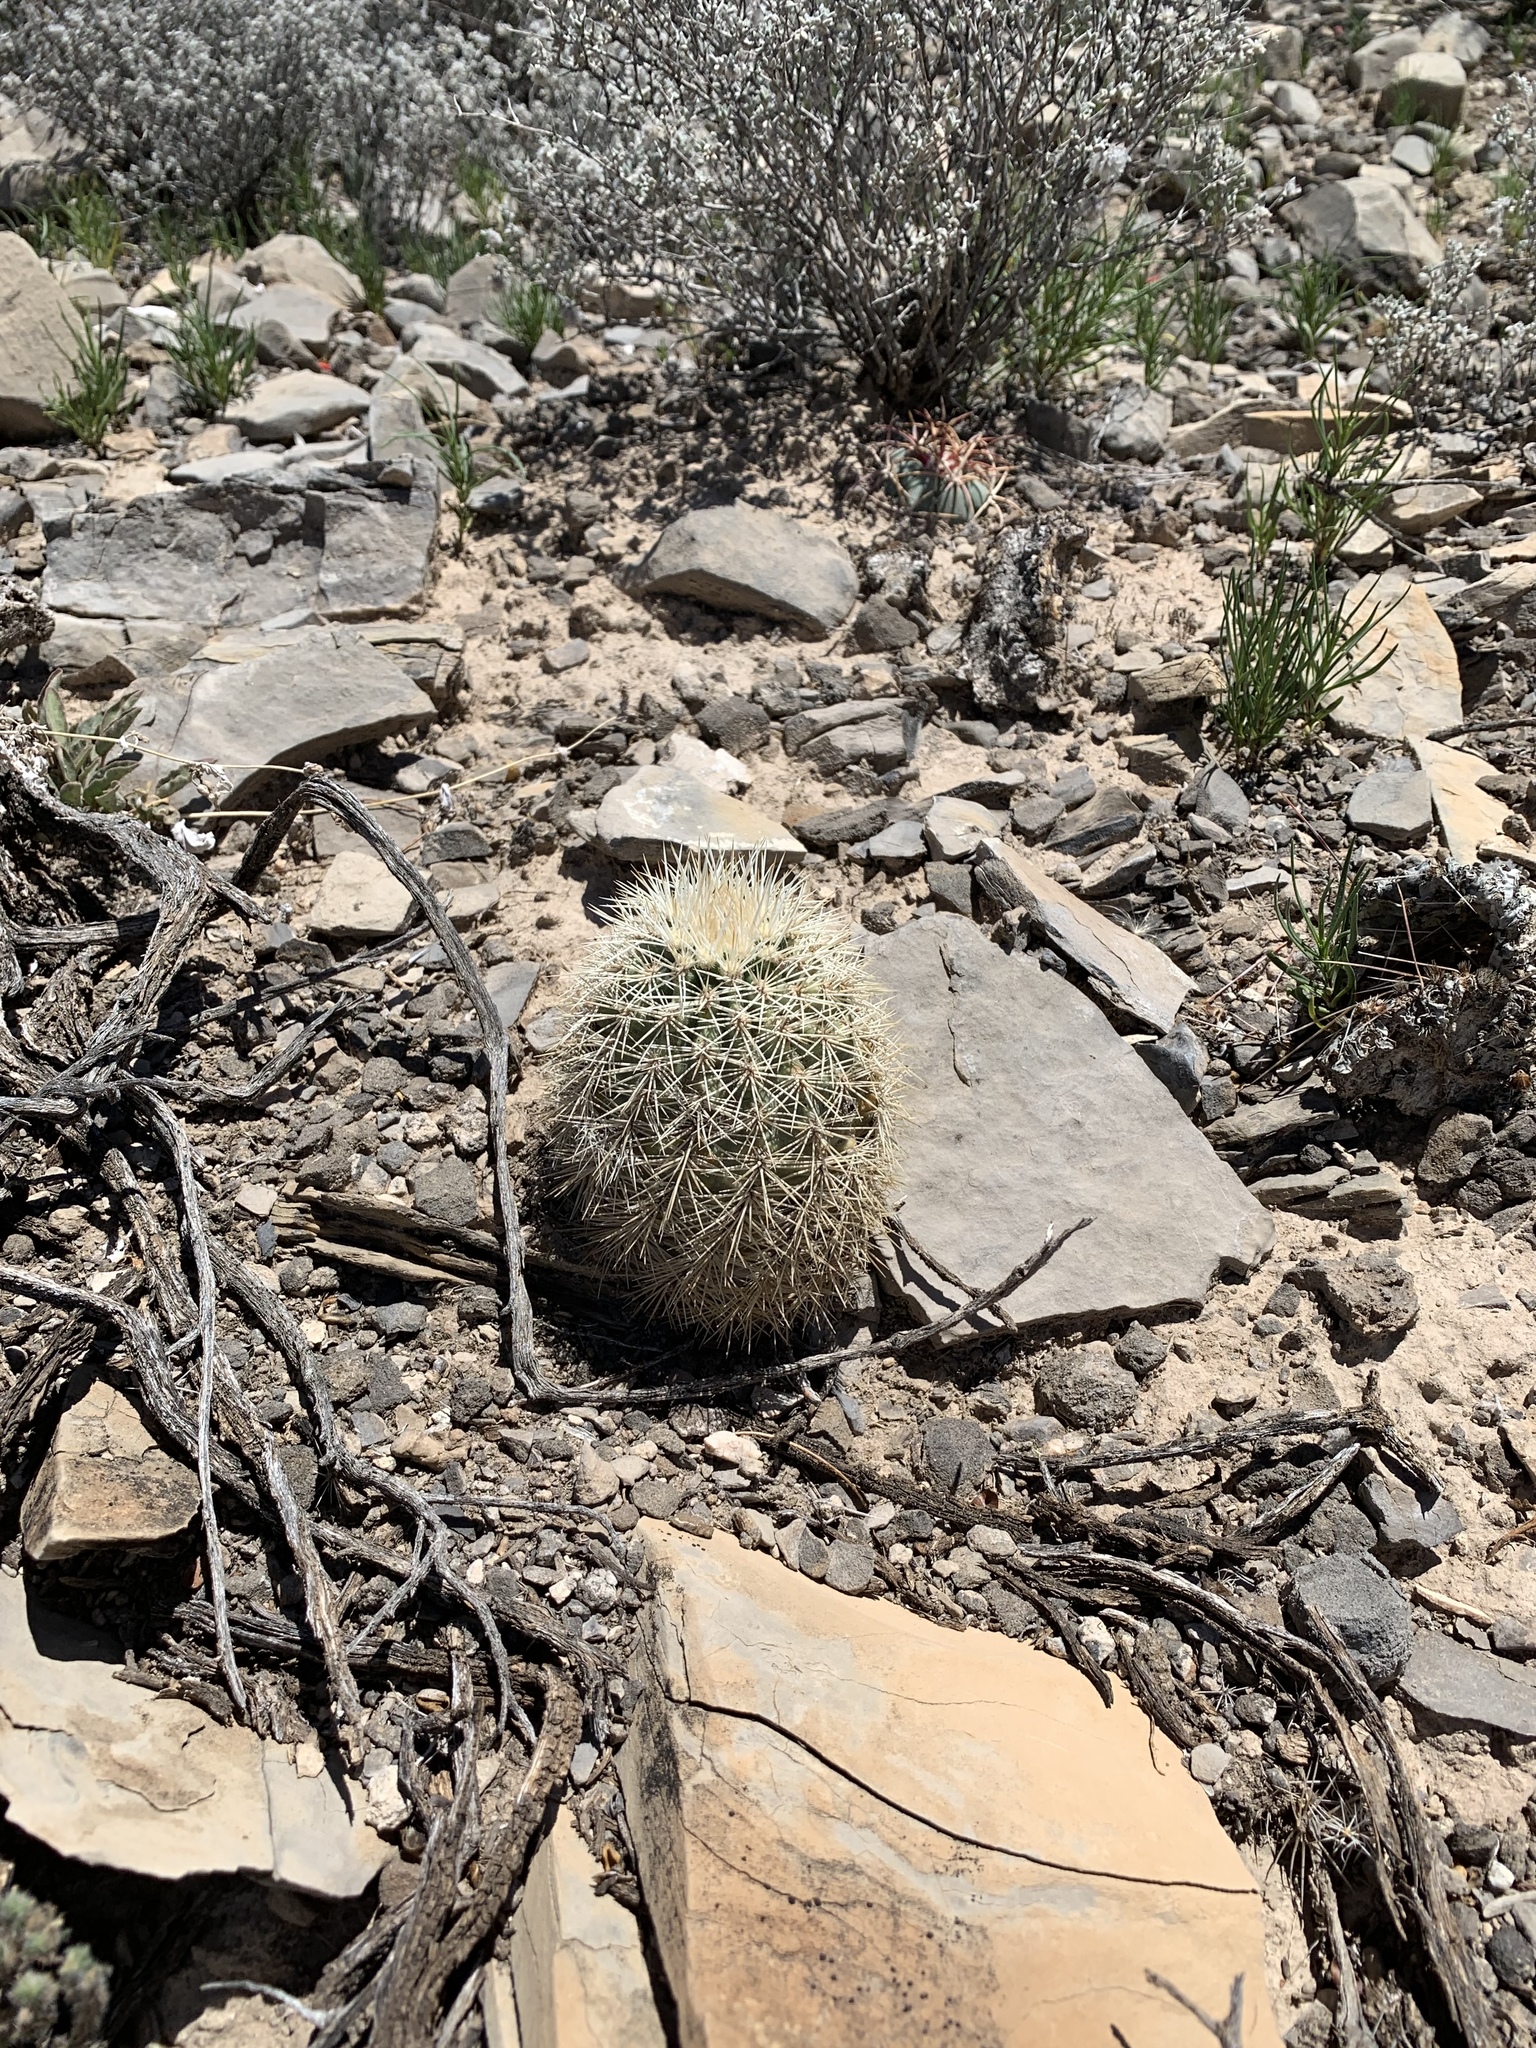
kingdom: Plantae
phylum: Tracheophyta
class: Magnoliopsida
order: Caryophyllales
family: Cactaceae
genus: Echinocereus
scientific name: Echinocereus dasyacanthus
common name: Spiny hedgehog cactus
